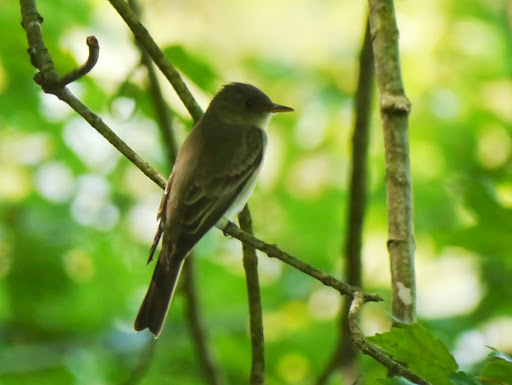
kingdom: Animalia
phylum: Chordata
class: Aves
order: Passeriformes
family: Tyrannidae
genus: Sayornis
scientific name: Sayornis phoebe
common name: Eastern phoebe
